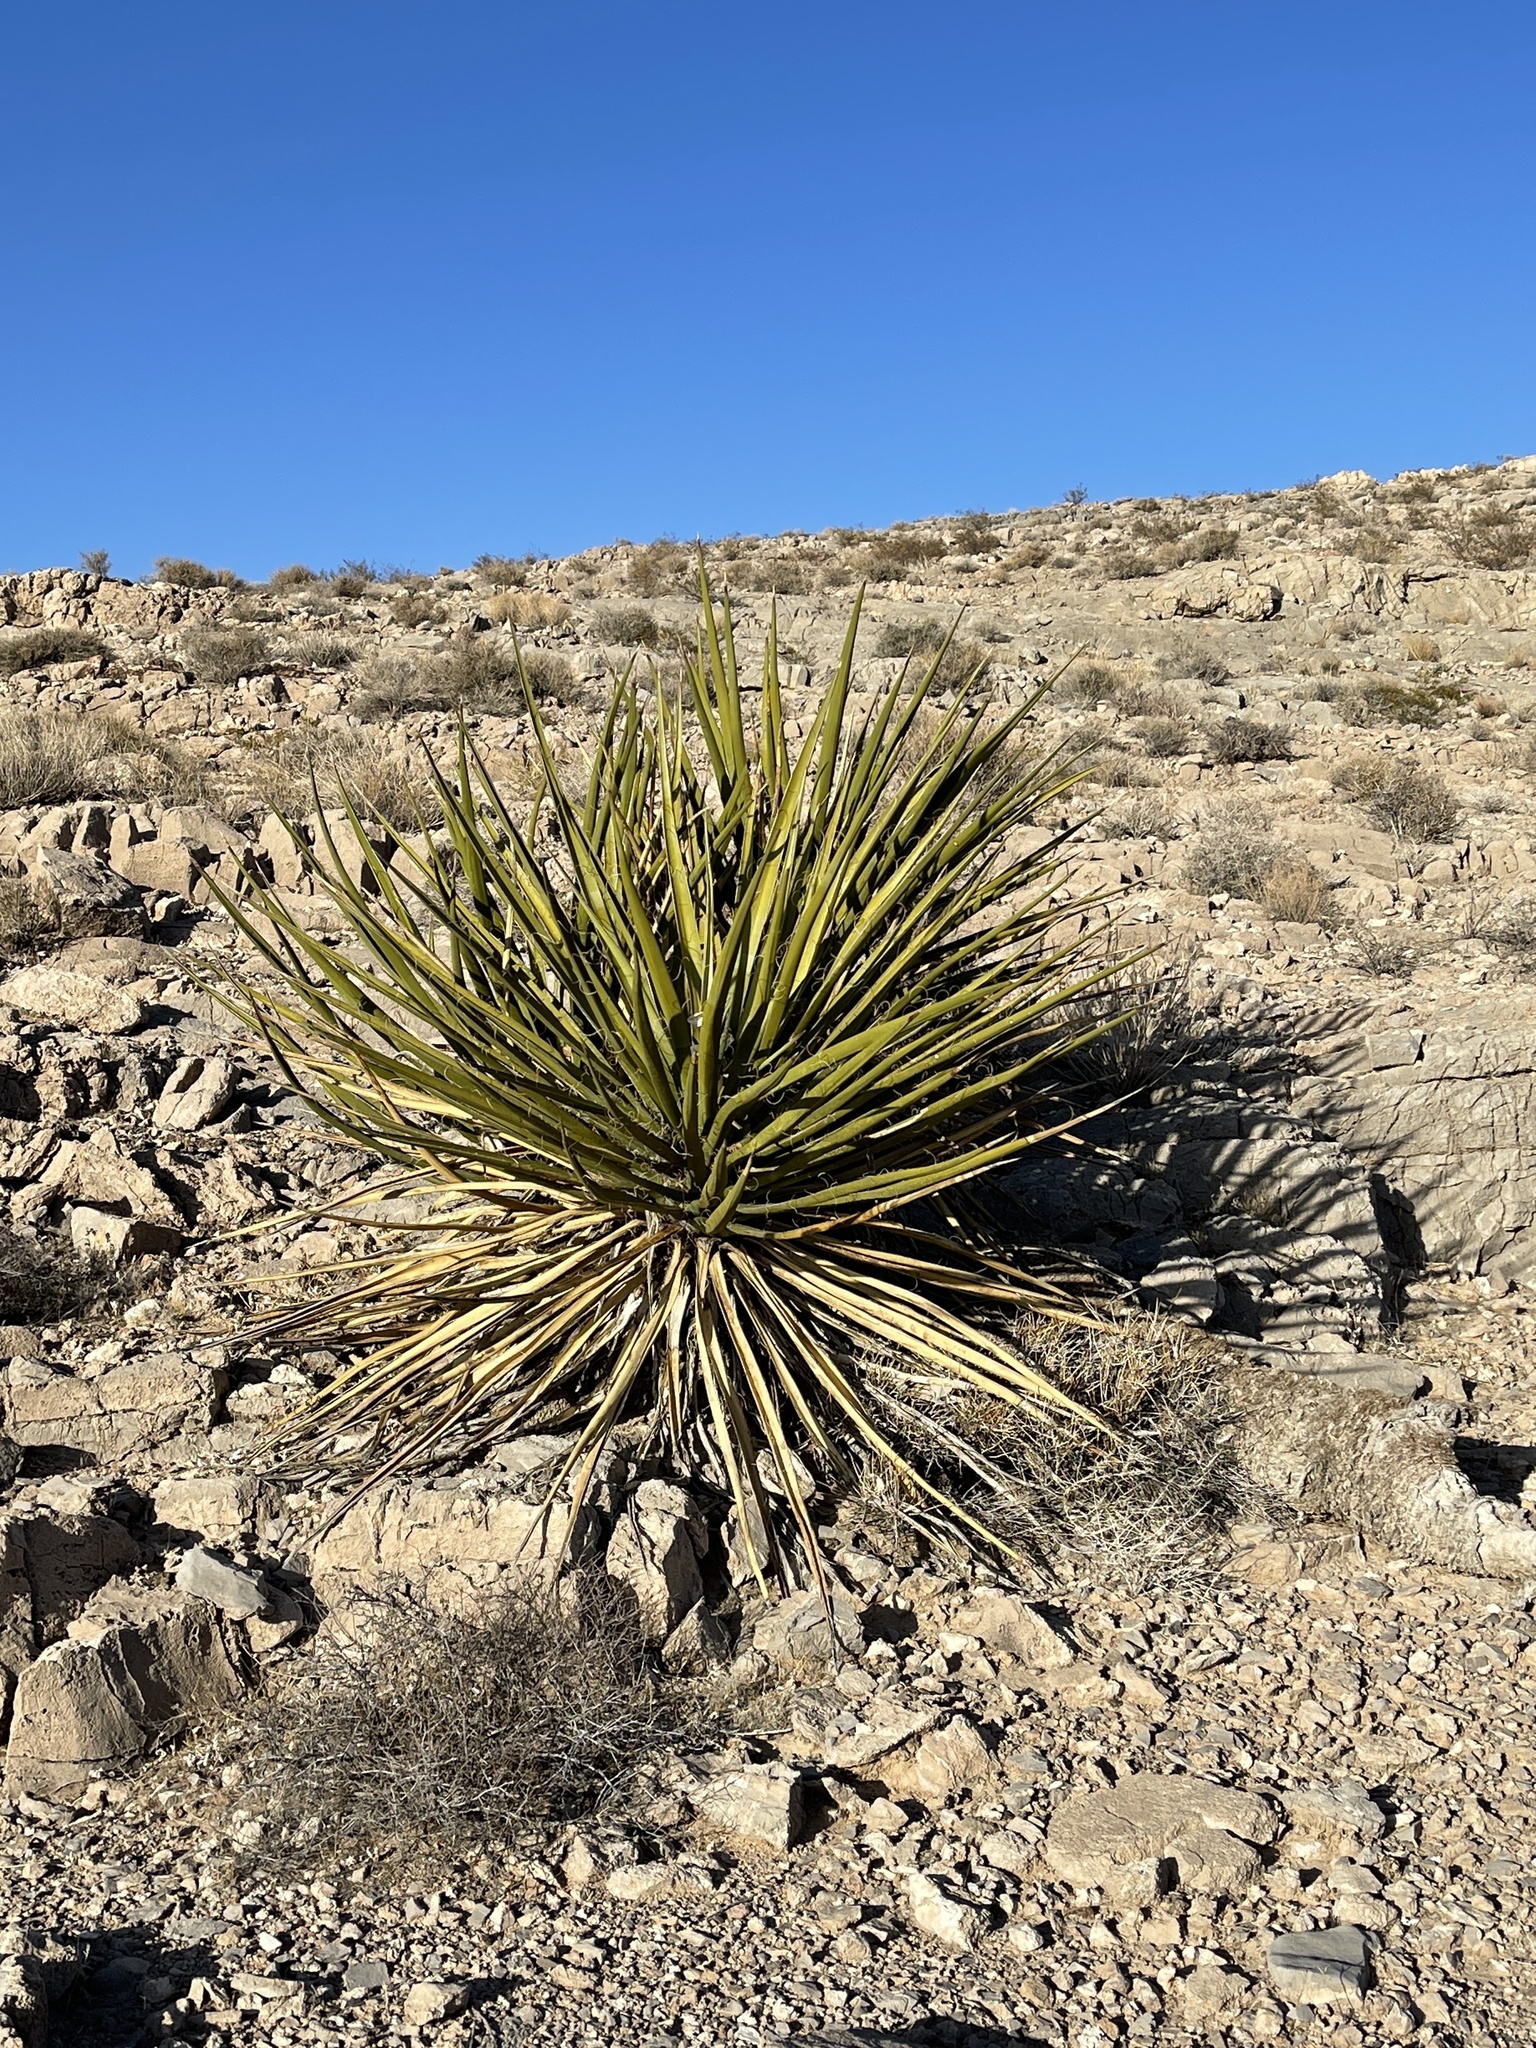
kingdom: Plantae
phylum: Tracheophyta
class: Liliopsida
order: Asparagales
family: Asparagaceae
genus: Yucca
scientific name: Yucca schidigera
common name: Mojave yucca
